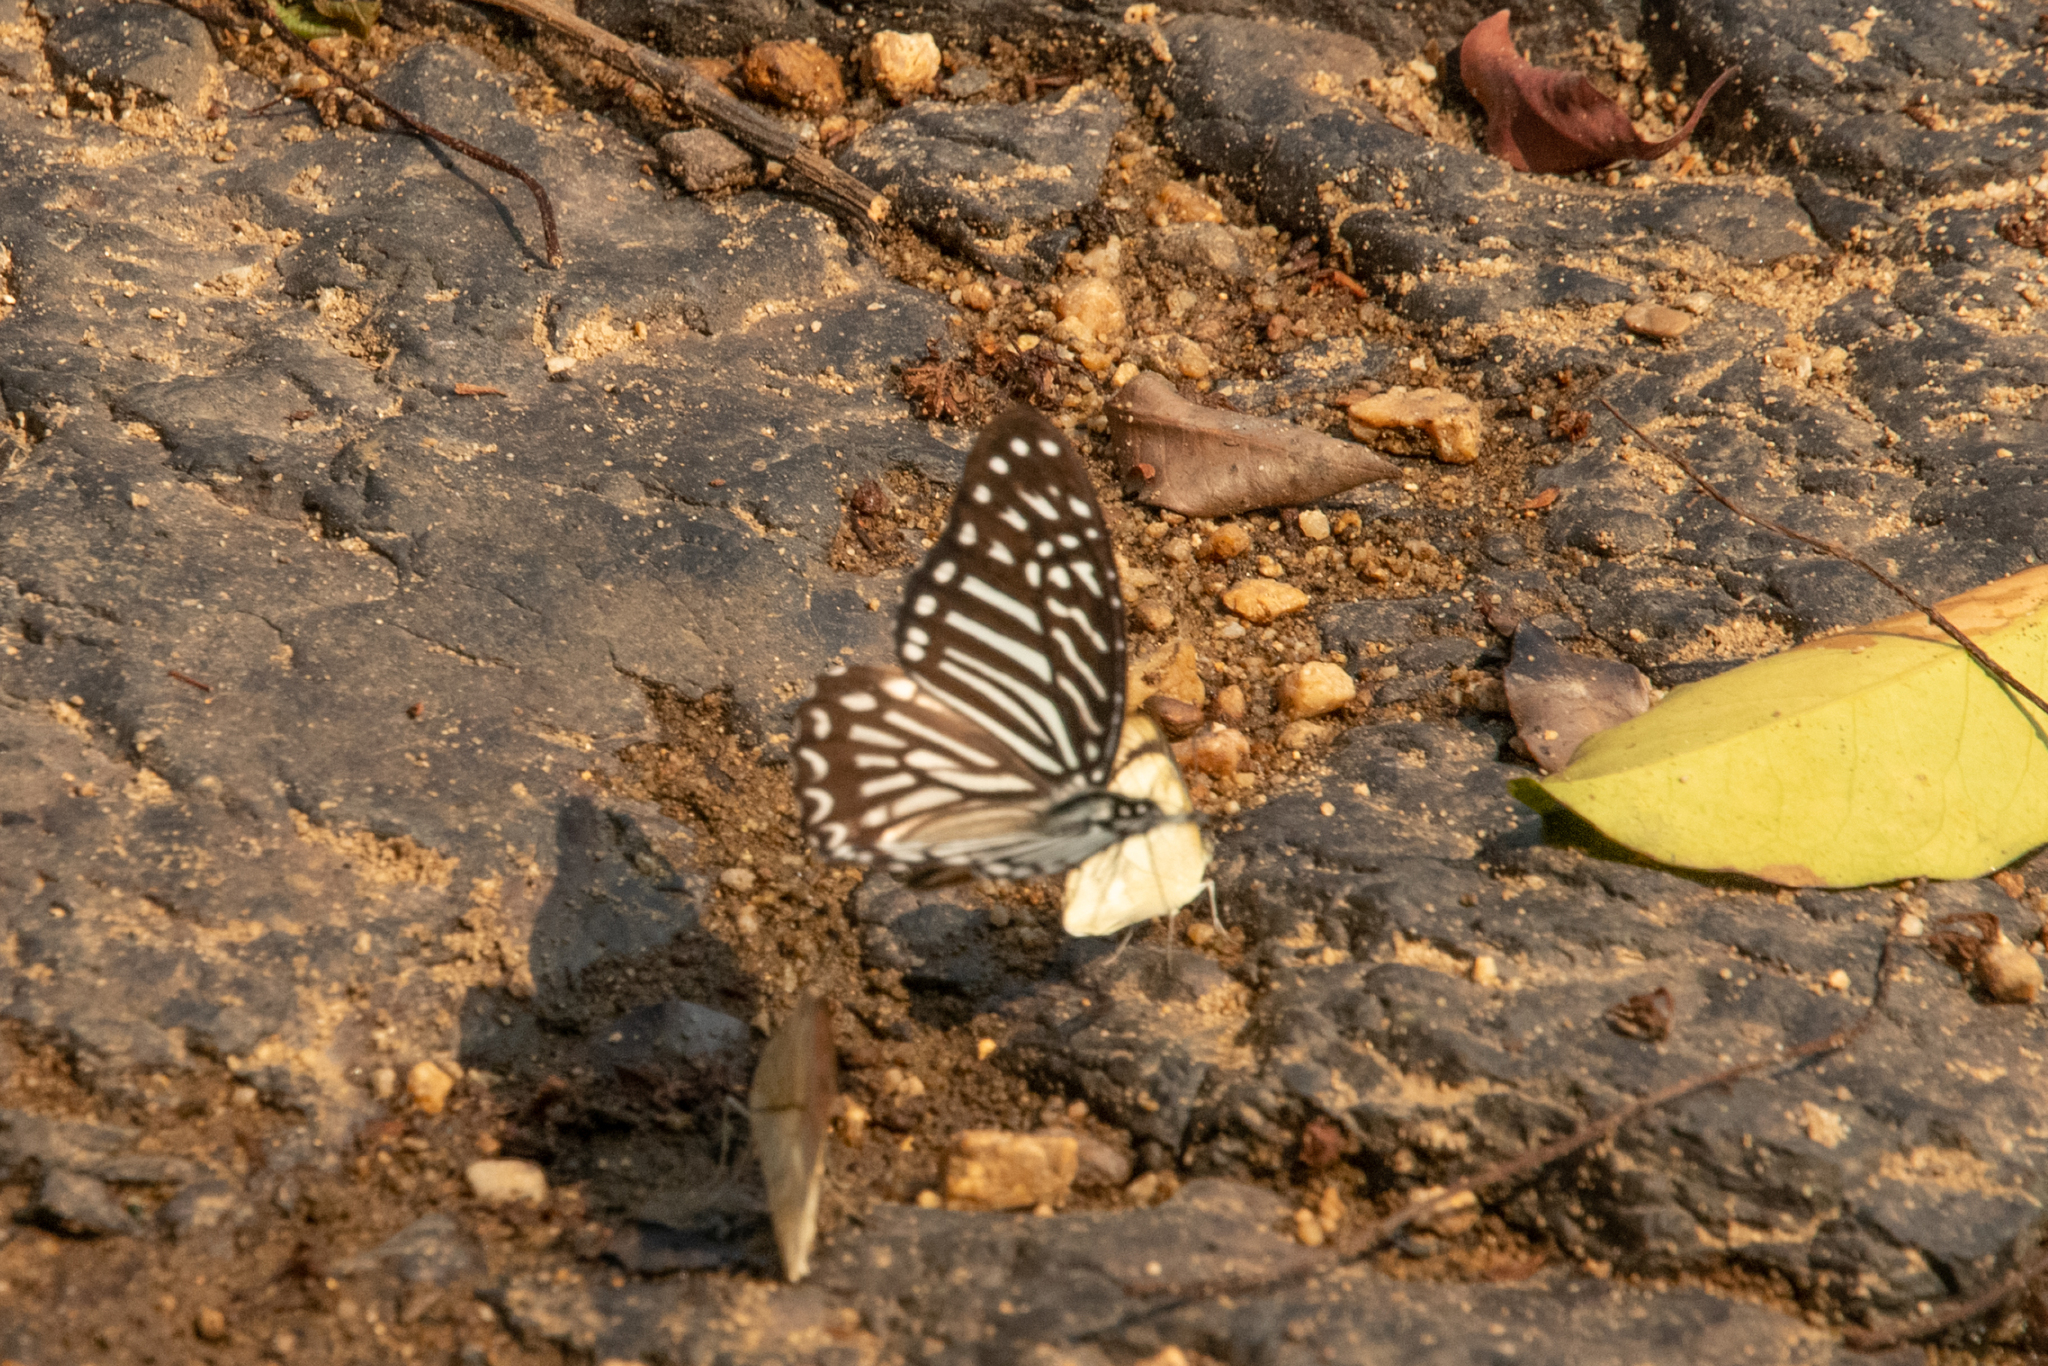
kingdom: Animalia
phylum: Arthropoda
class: Insecta
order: Lepidoptera
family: Papilionidae
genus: Graphium
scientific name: Graphium macareus
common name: Lesser zebra
